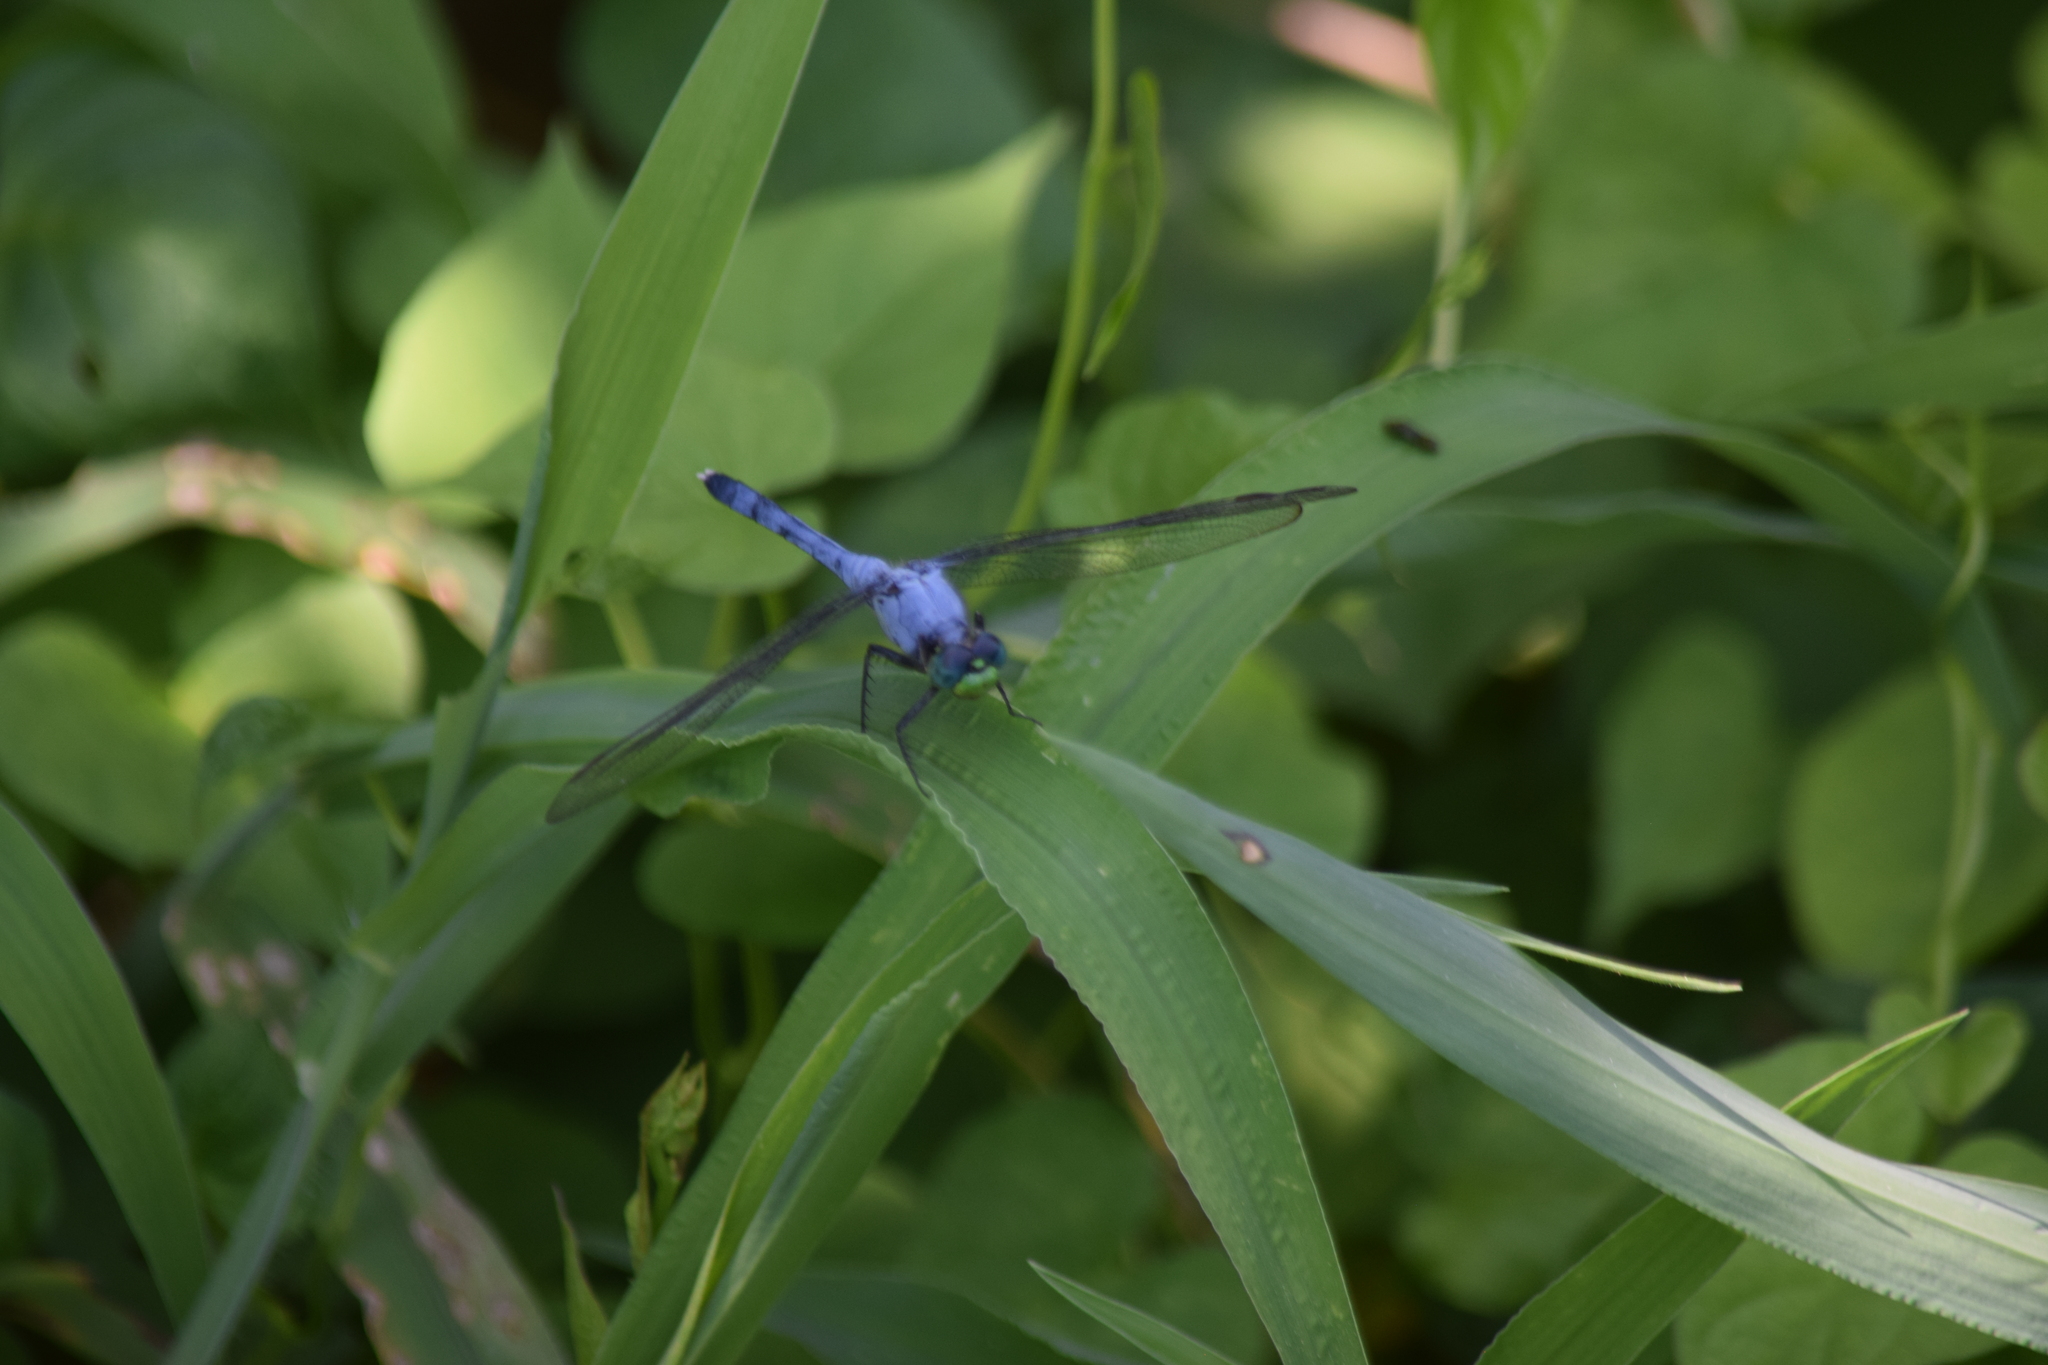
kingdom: Animalia
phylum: Arthropoda
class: Insecta
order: Odonata
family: Libellulidae
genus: Erythemis
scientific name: Erythemis simplicicollis
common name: Eastern pondhawk
